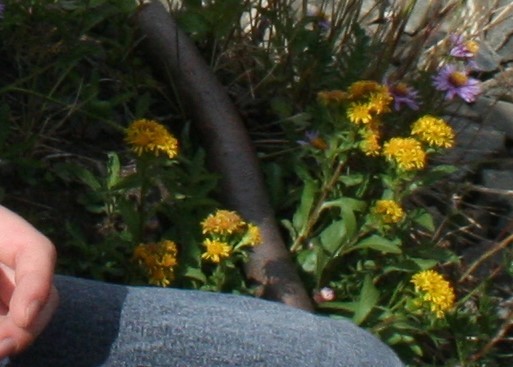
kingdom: Plantae
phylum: Tracheophyta
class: Magnoliopsida
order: Asterales
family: Asteraceae
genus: Solidago
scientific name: Solidago multiradiata
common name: Northern goldenrod
